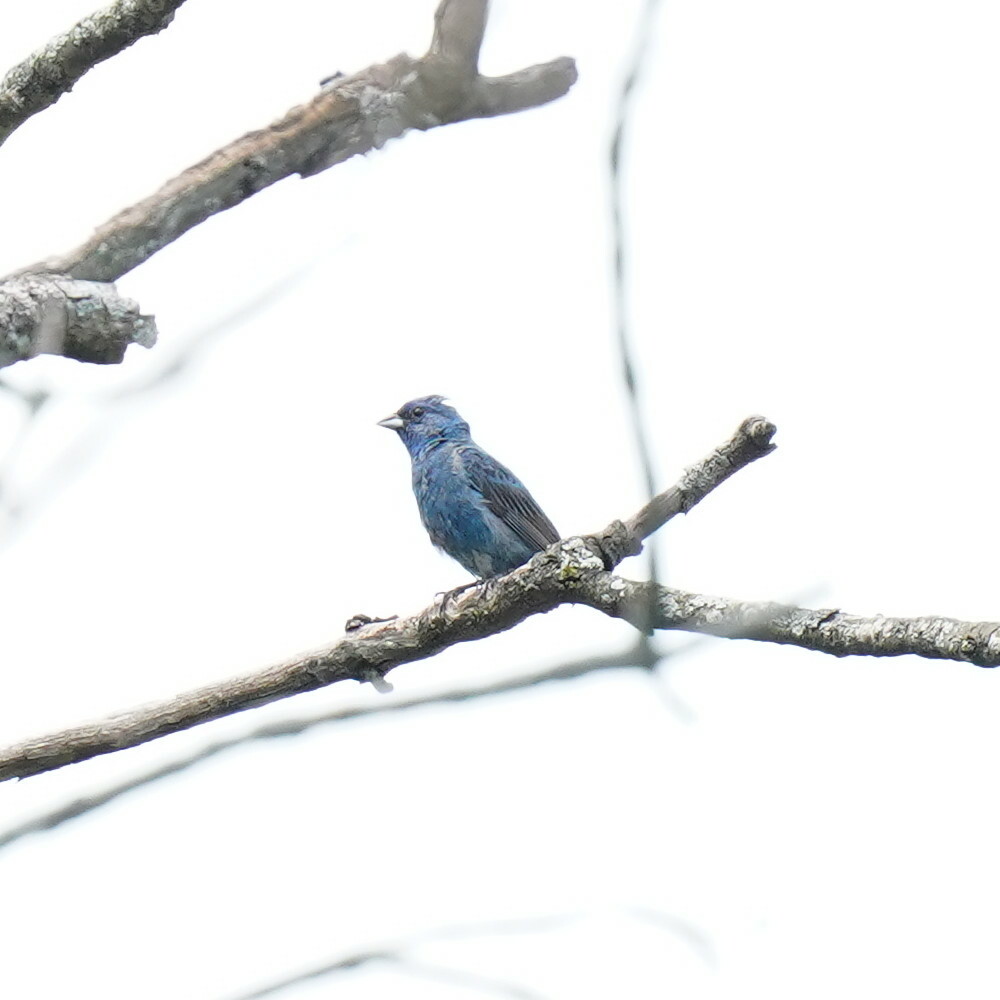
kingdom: Animalia
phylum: Chordata
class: Aves
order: Passeriformes
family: Cardinalidae
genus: Passerina
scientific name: Passerina cyanea
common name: Indigo bunting
